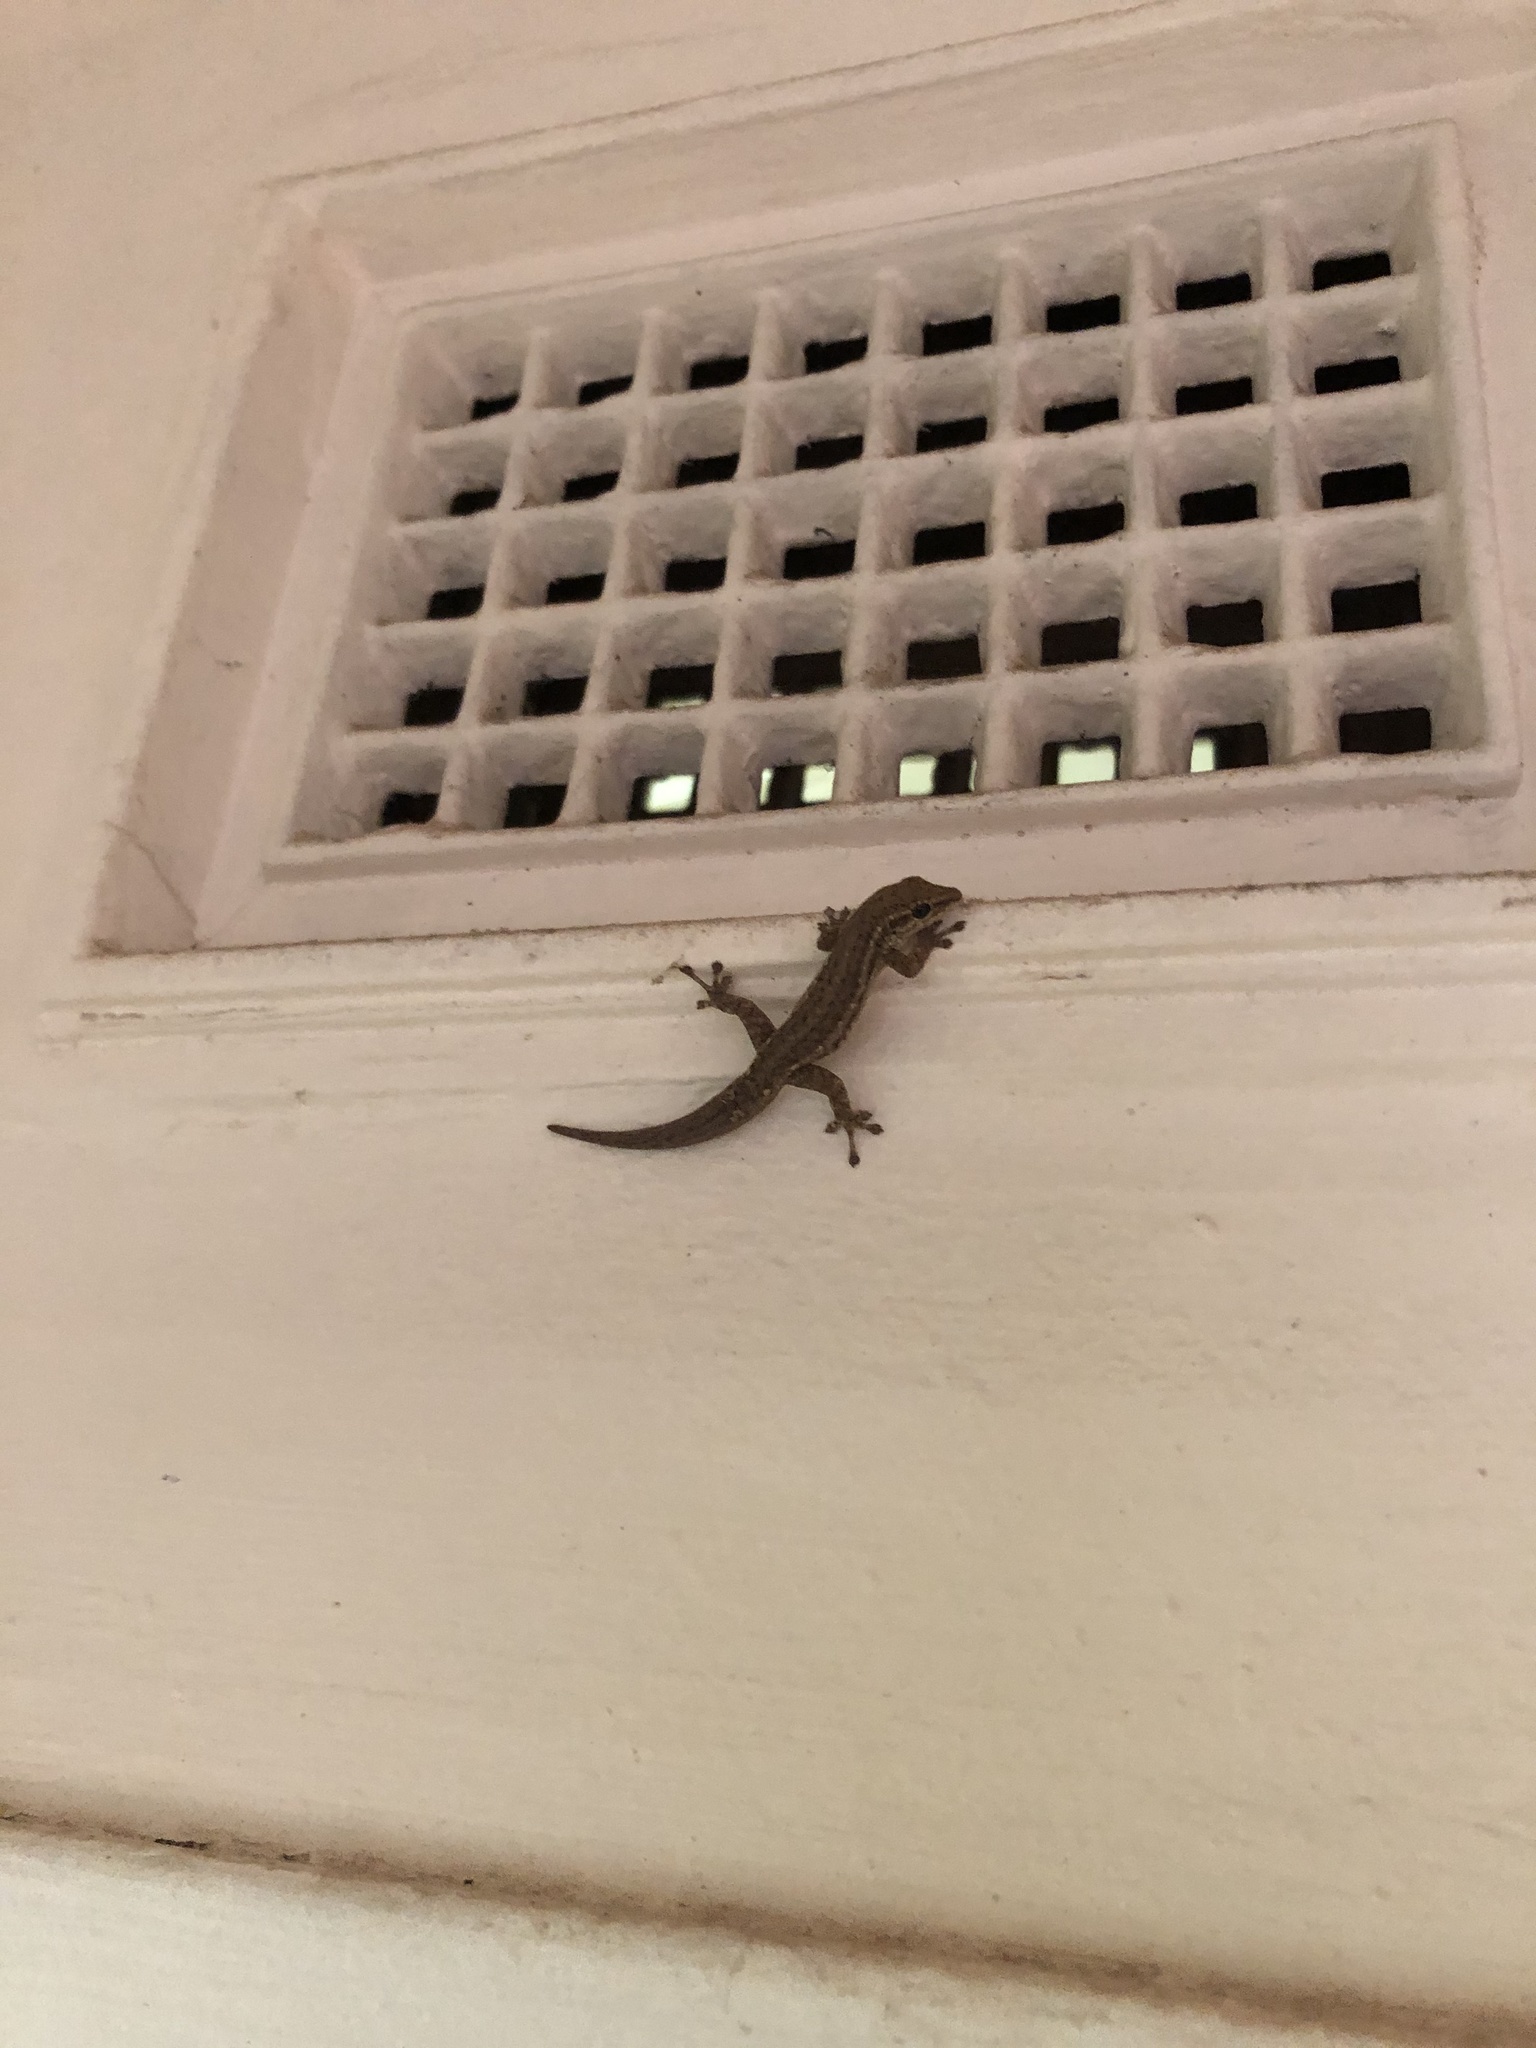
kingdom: Animalia
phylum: Chordata
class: Squamata
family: Gekkonidae
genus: Lygodactylus
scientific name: Lygodactylus capensis
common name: Cape dwarf gecko
